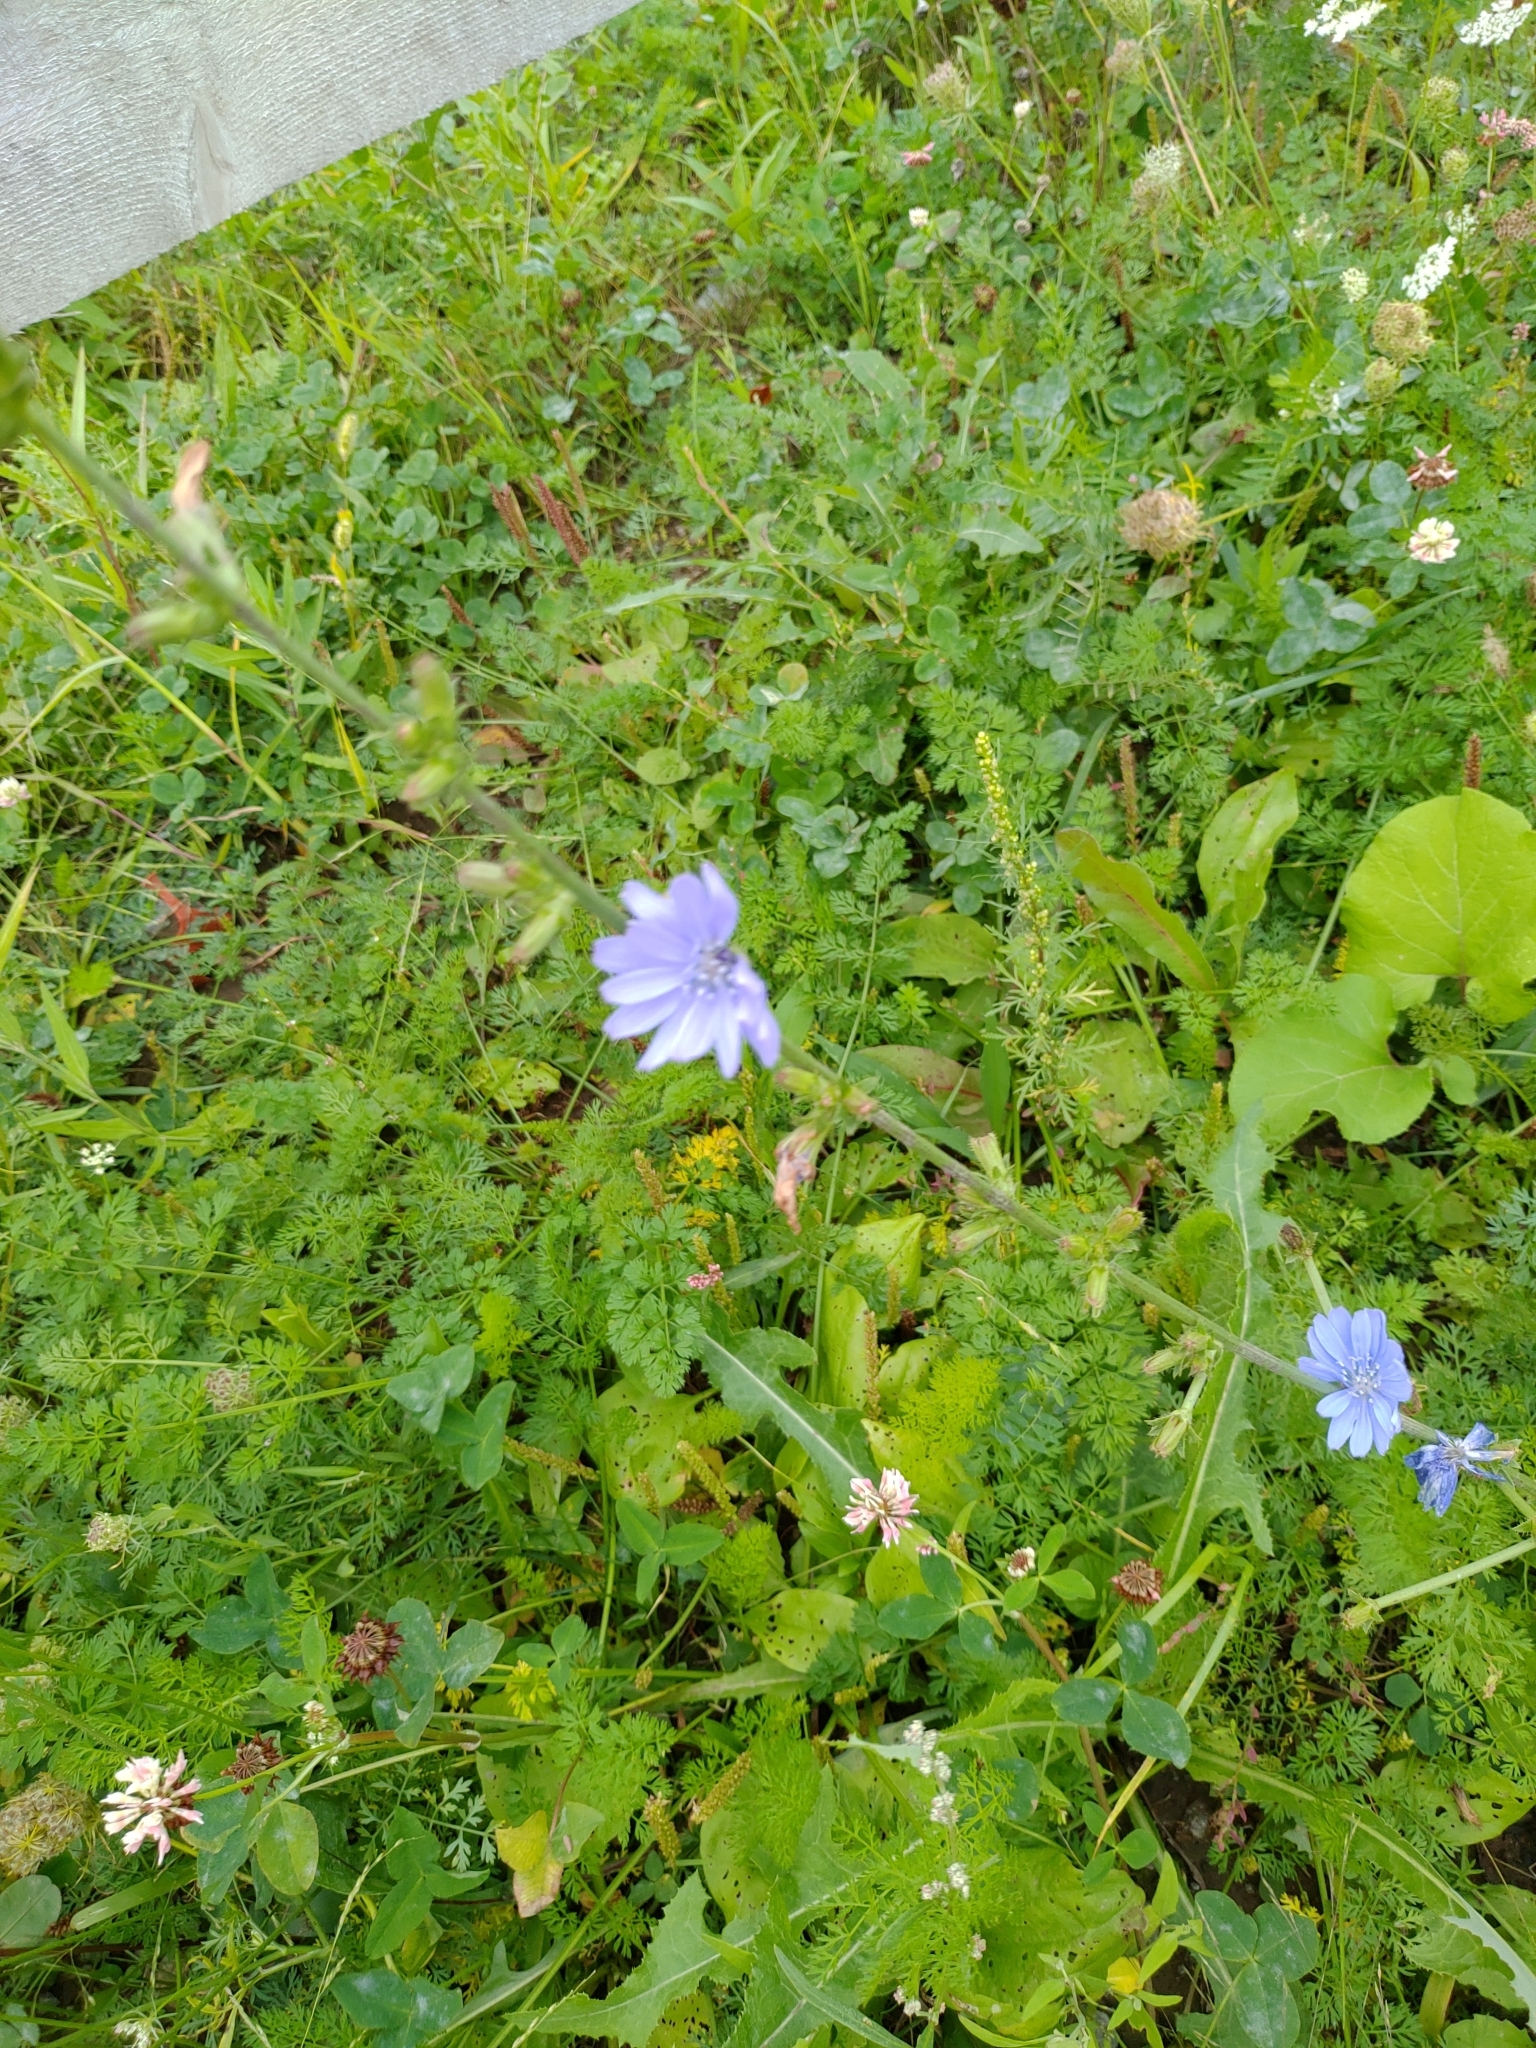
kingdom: Plantae
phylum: Tracheophyta
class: Magnoliopsida
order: Asterales
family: Asteraceae
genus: Cichorium
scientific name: Cichorium intybus
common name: Chicory
